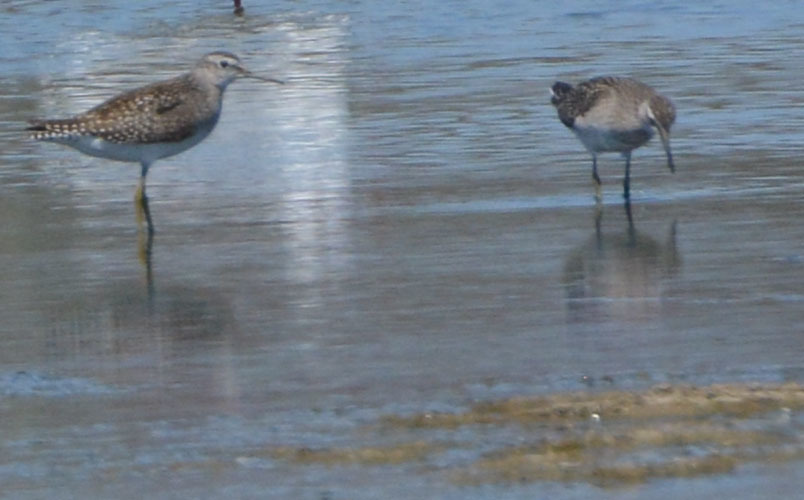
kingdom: Animalia
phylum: Chordata
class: Aves
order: Charadriiformes
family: Scolopacidae
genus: Tringa
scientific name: Tringa glareola
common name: Wood sandpiper
